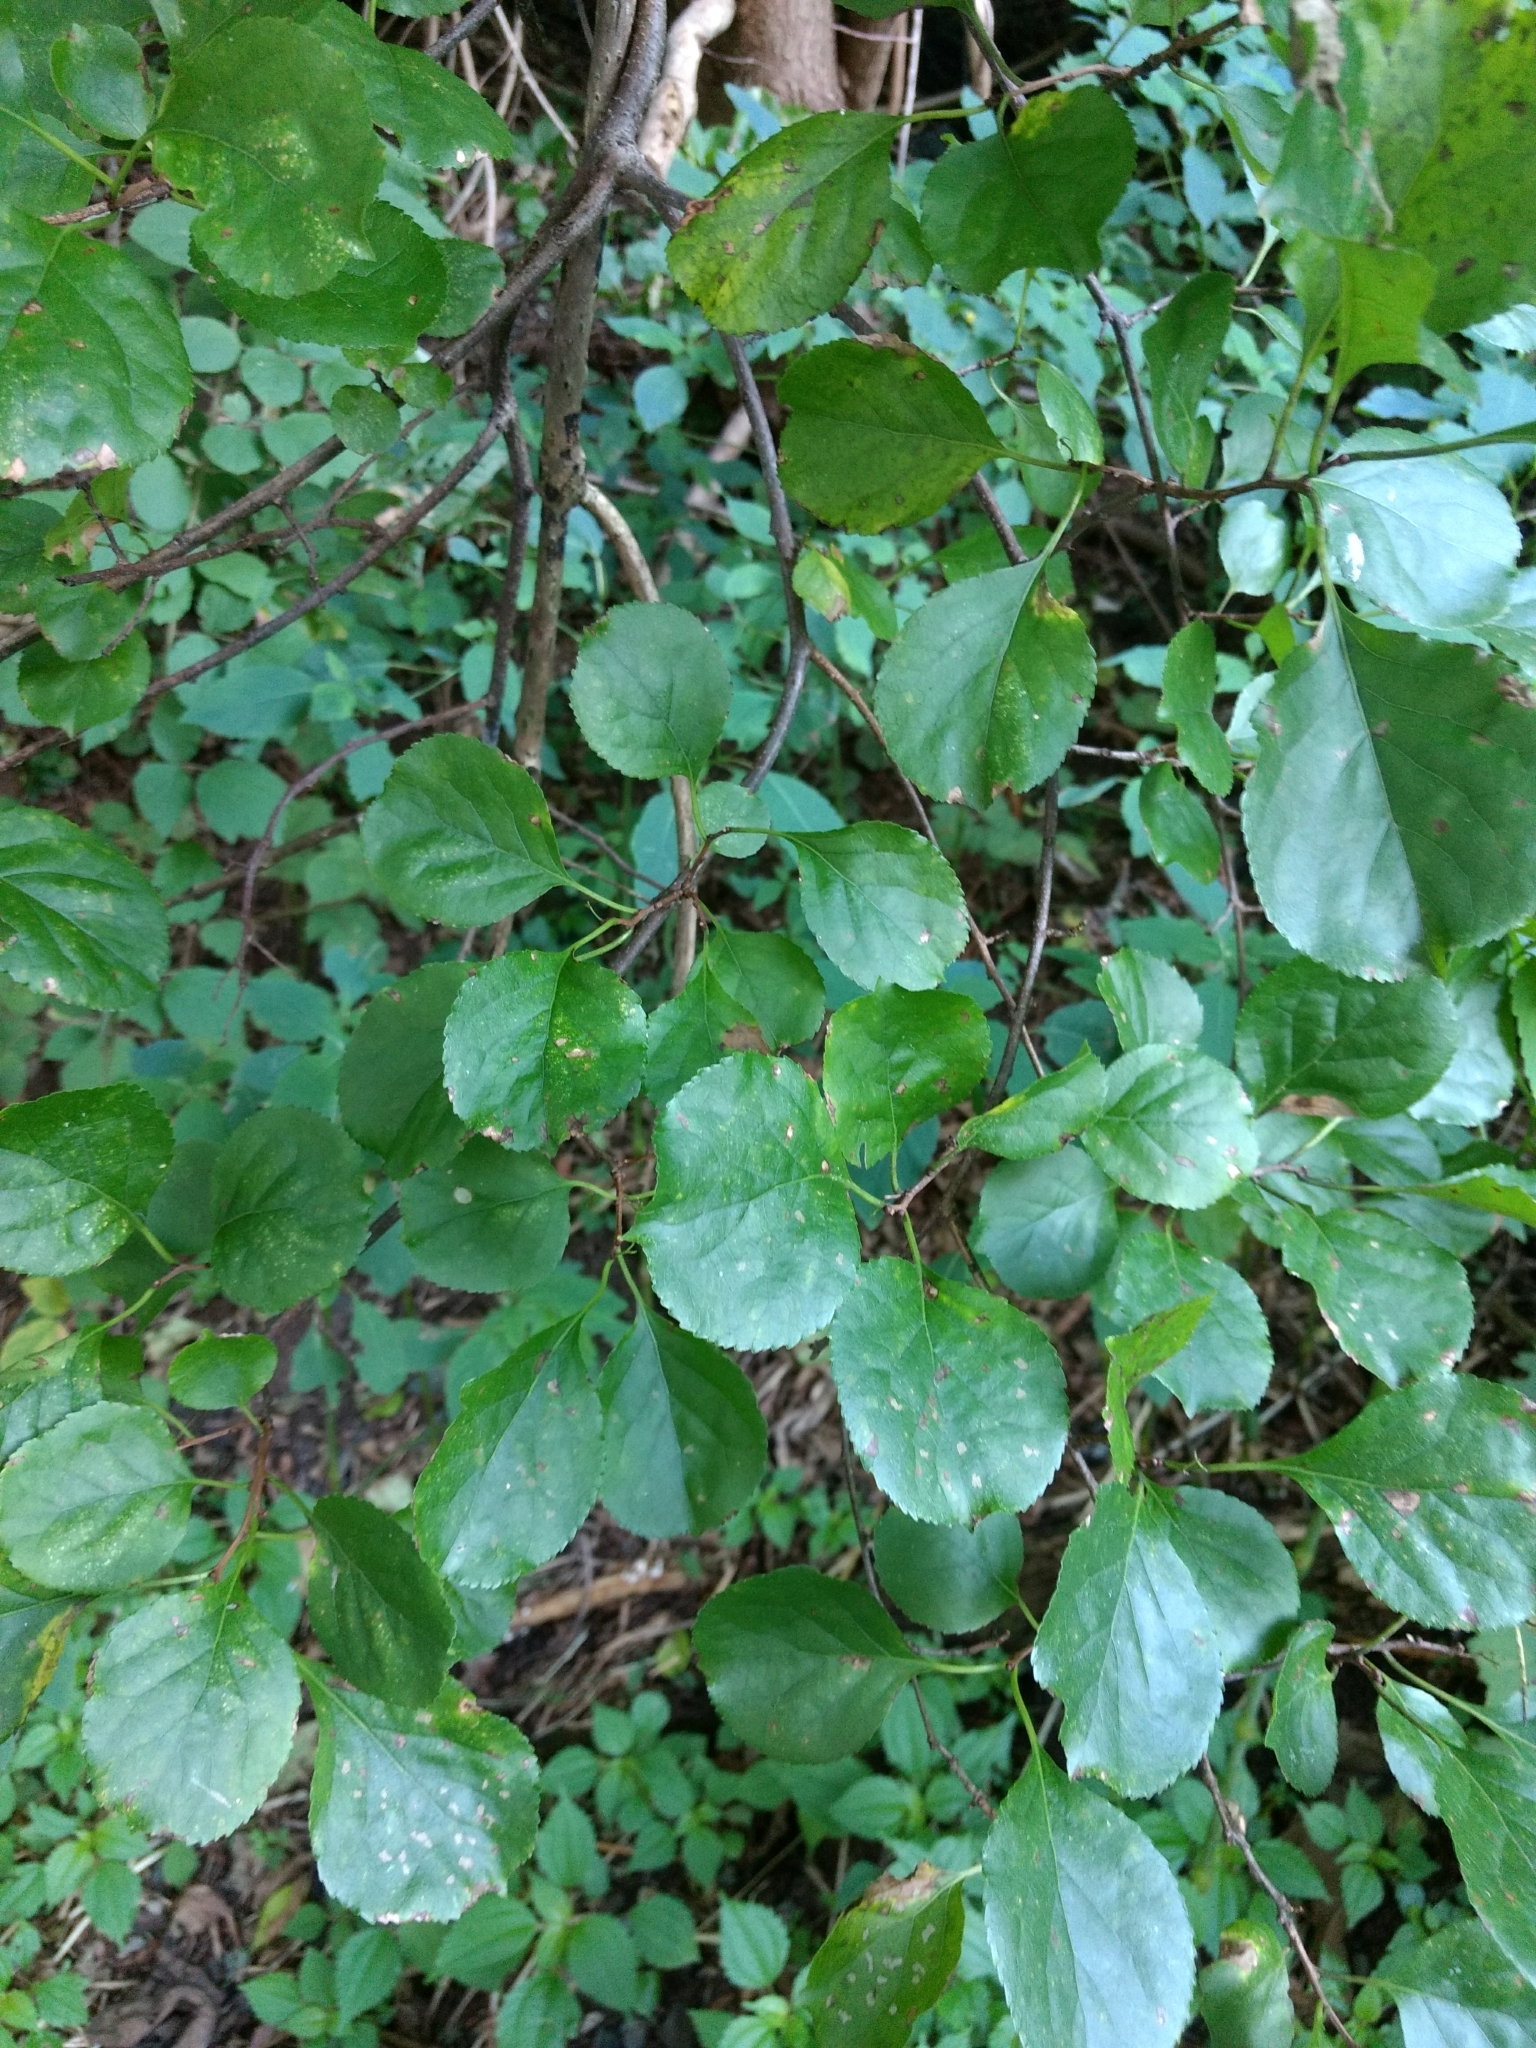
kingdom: Plantae
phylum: Tracheophyta
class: Magnoliopsida
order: Celastrales
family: Celastraceae
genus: Celastrus
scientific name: Celastrus orbiculatus
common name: Oriental bittersweet
